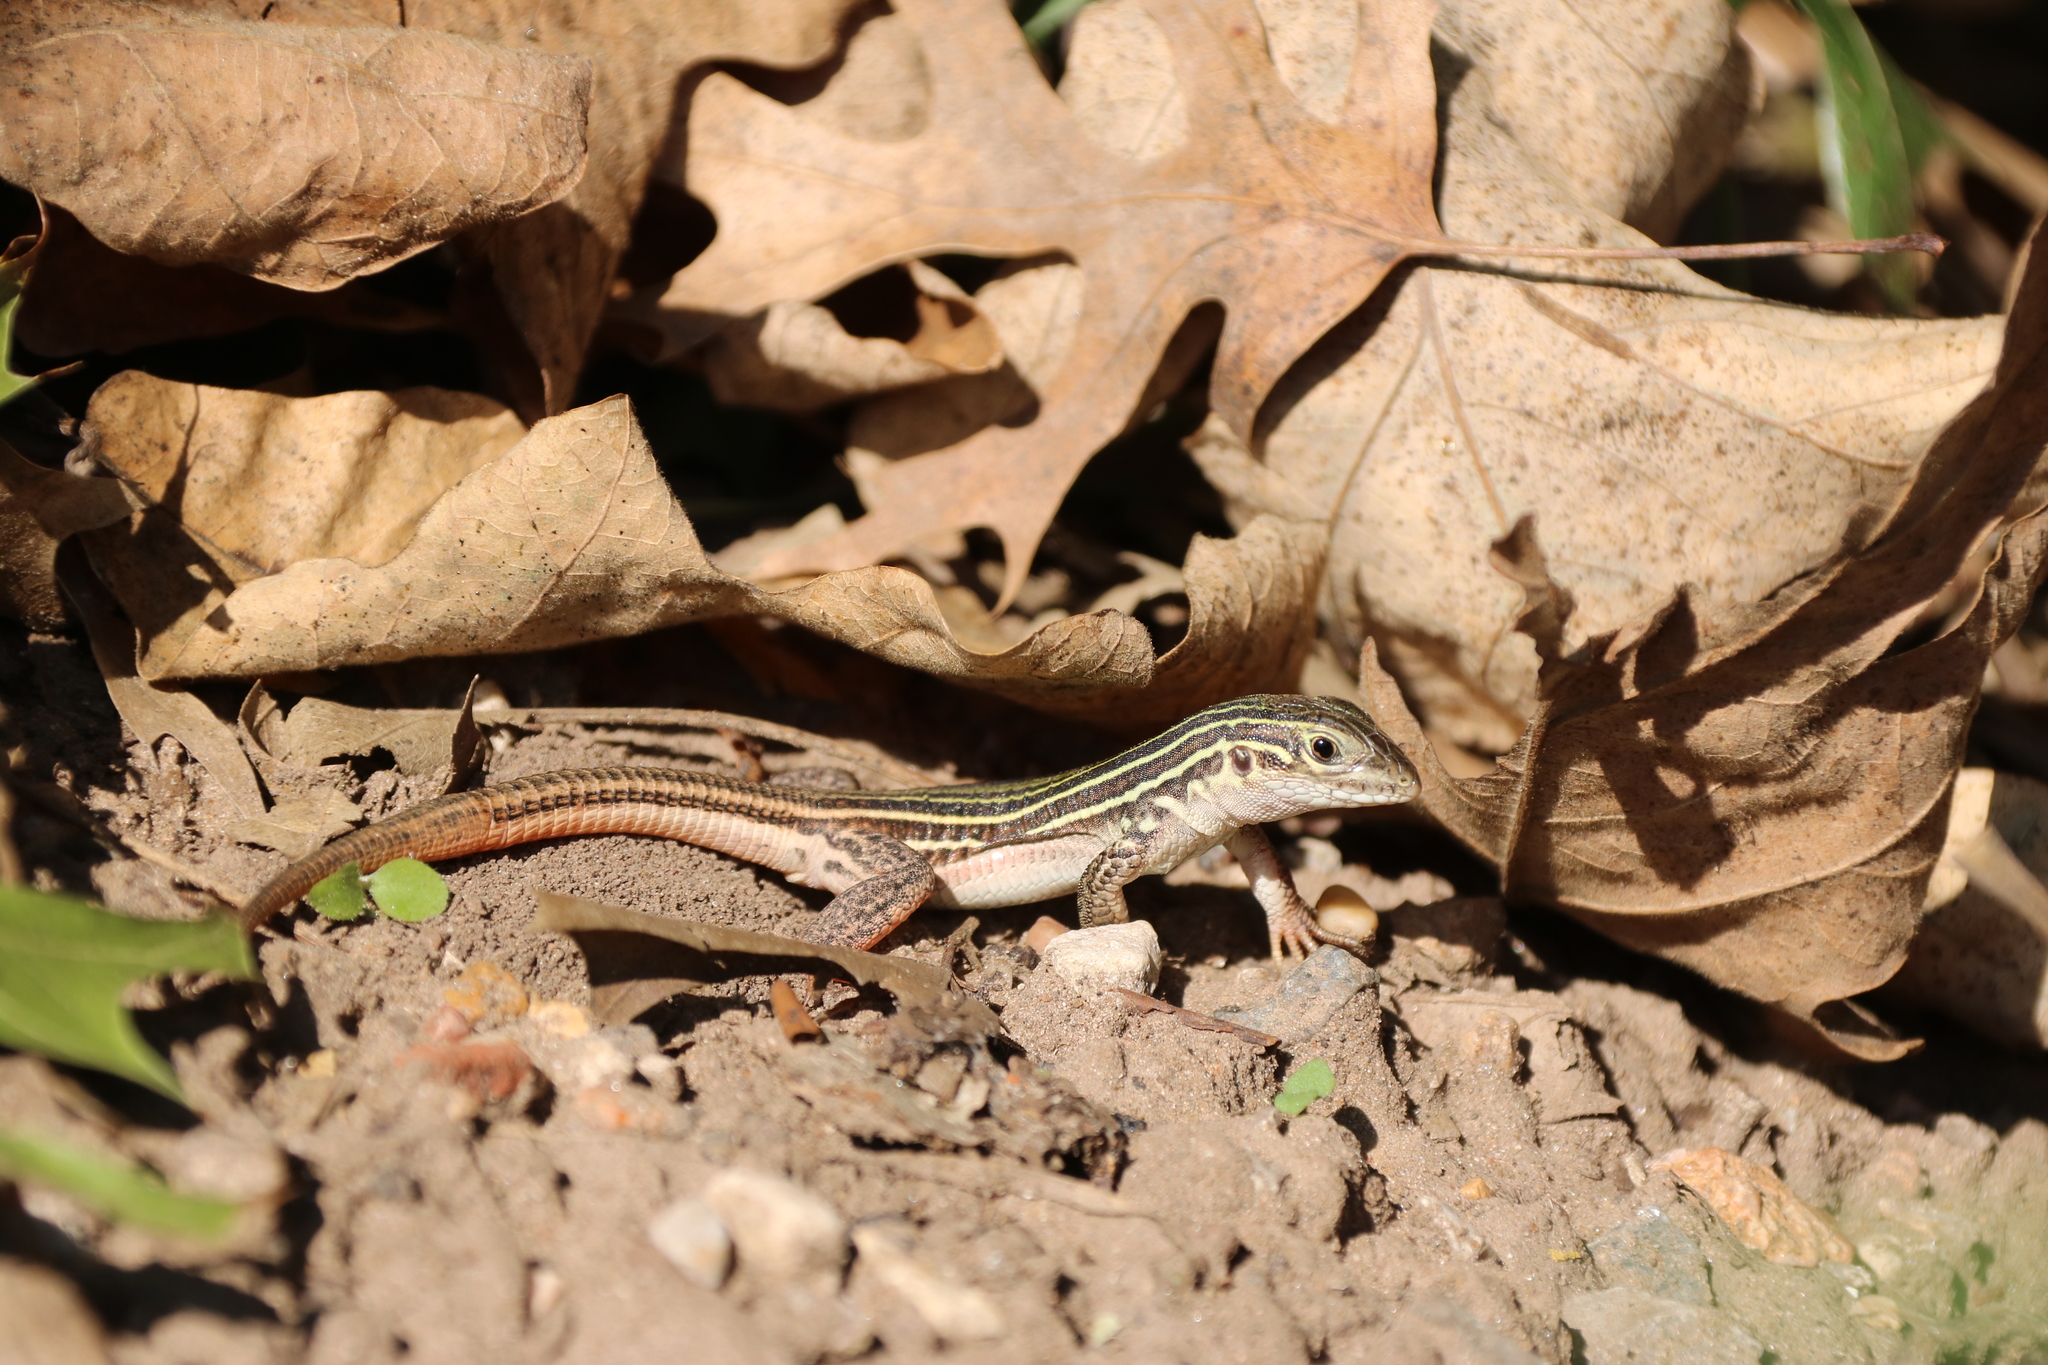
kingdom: Animalia
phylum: Chordata
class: Squamata
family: Teiidae
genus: Aspidoscelis
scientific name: Aspidoscelis gularis
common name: Eastern spotted whiptail
